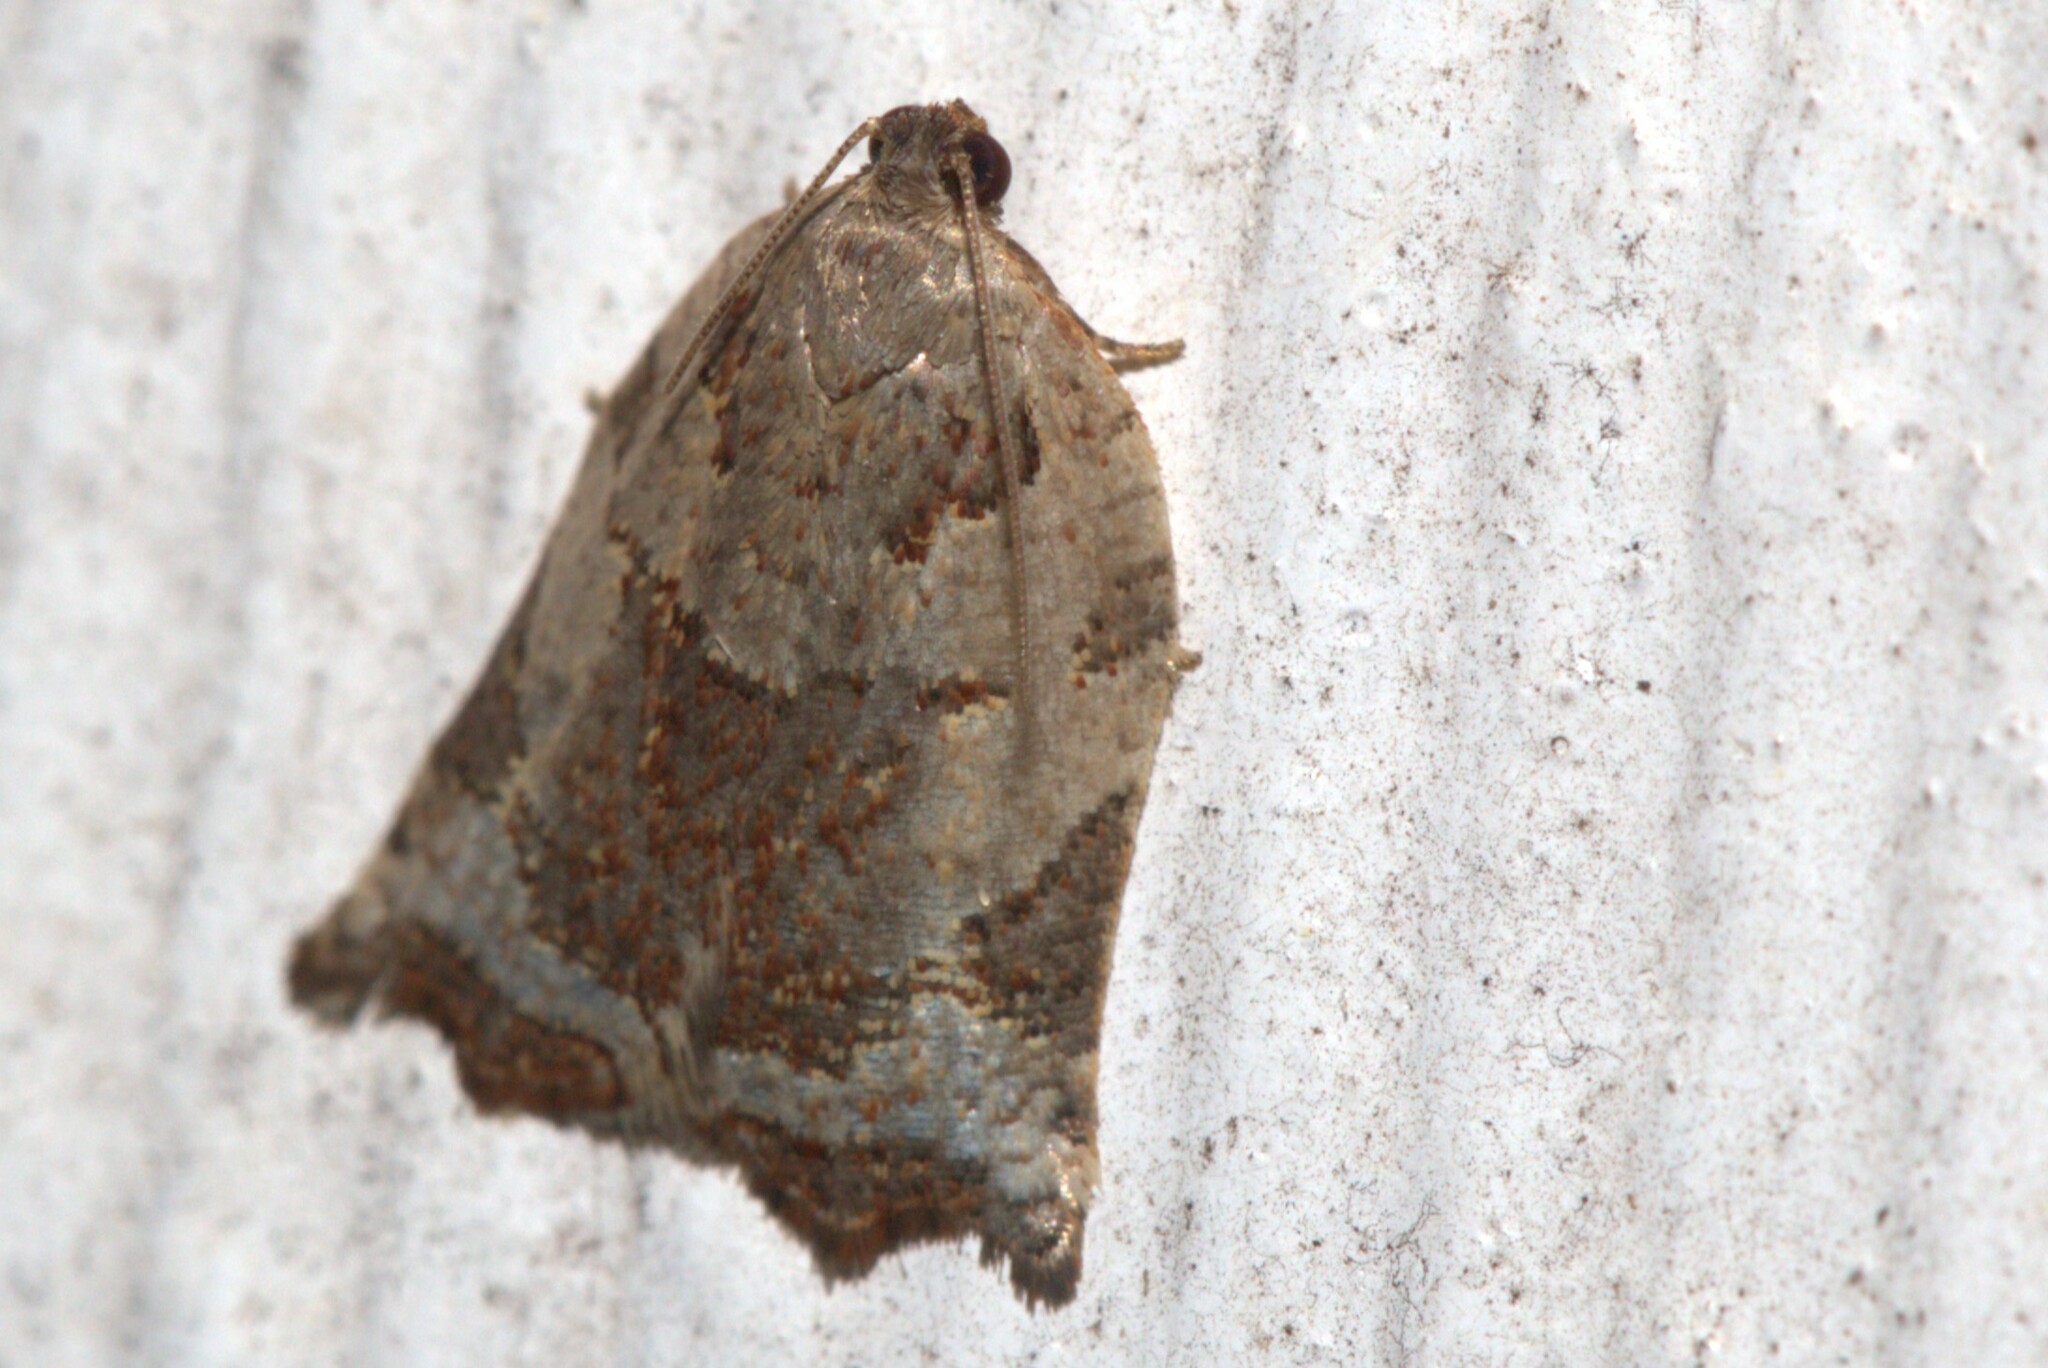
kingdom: Animalia
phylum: Arthropoda
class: Insecta
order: Lepidoptera
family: Tortricidae
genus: Anisogona
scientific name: Anisogona simana
